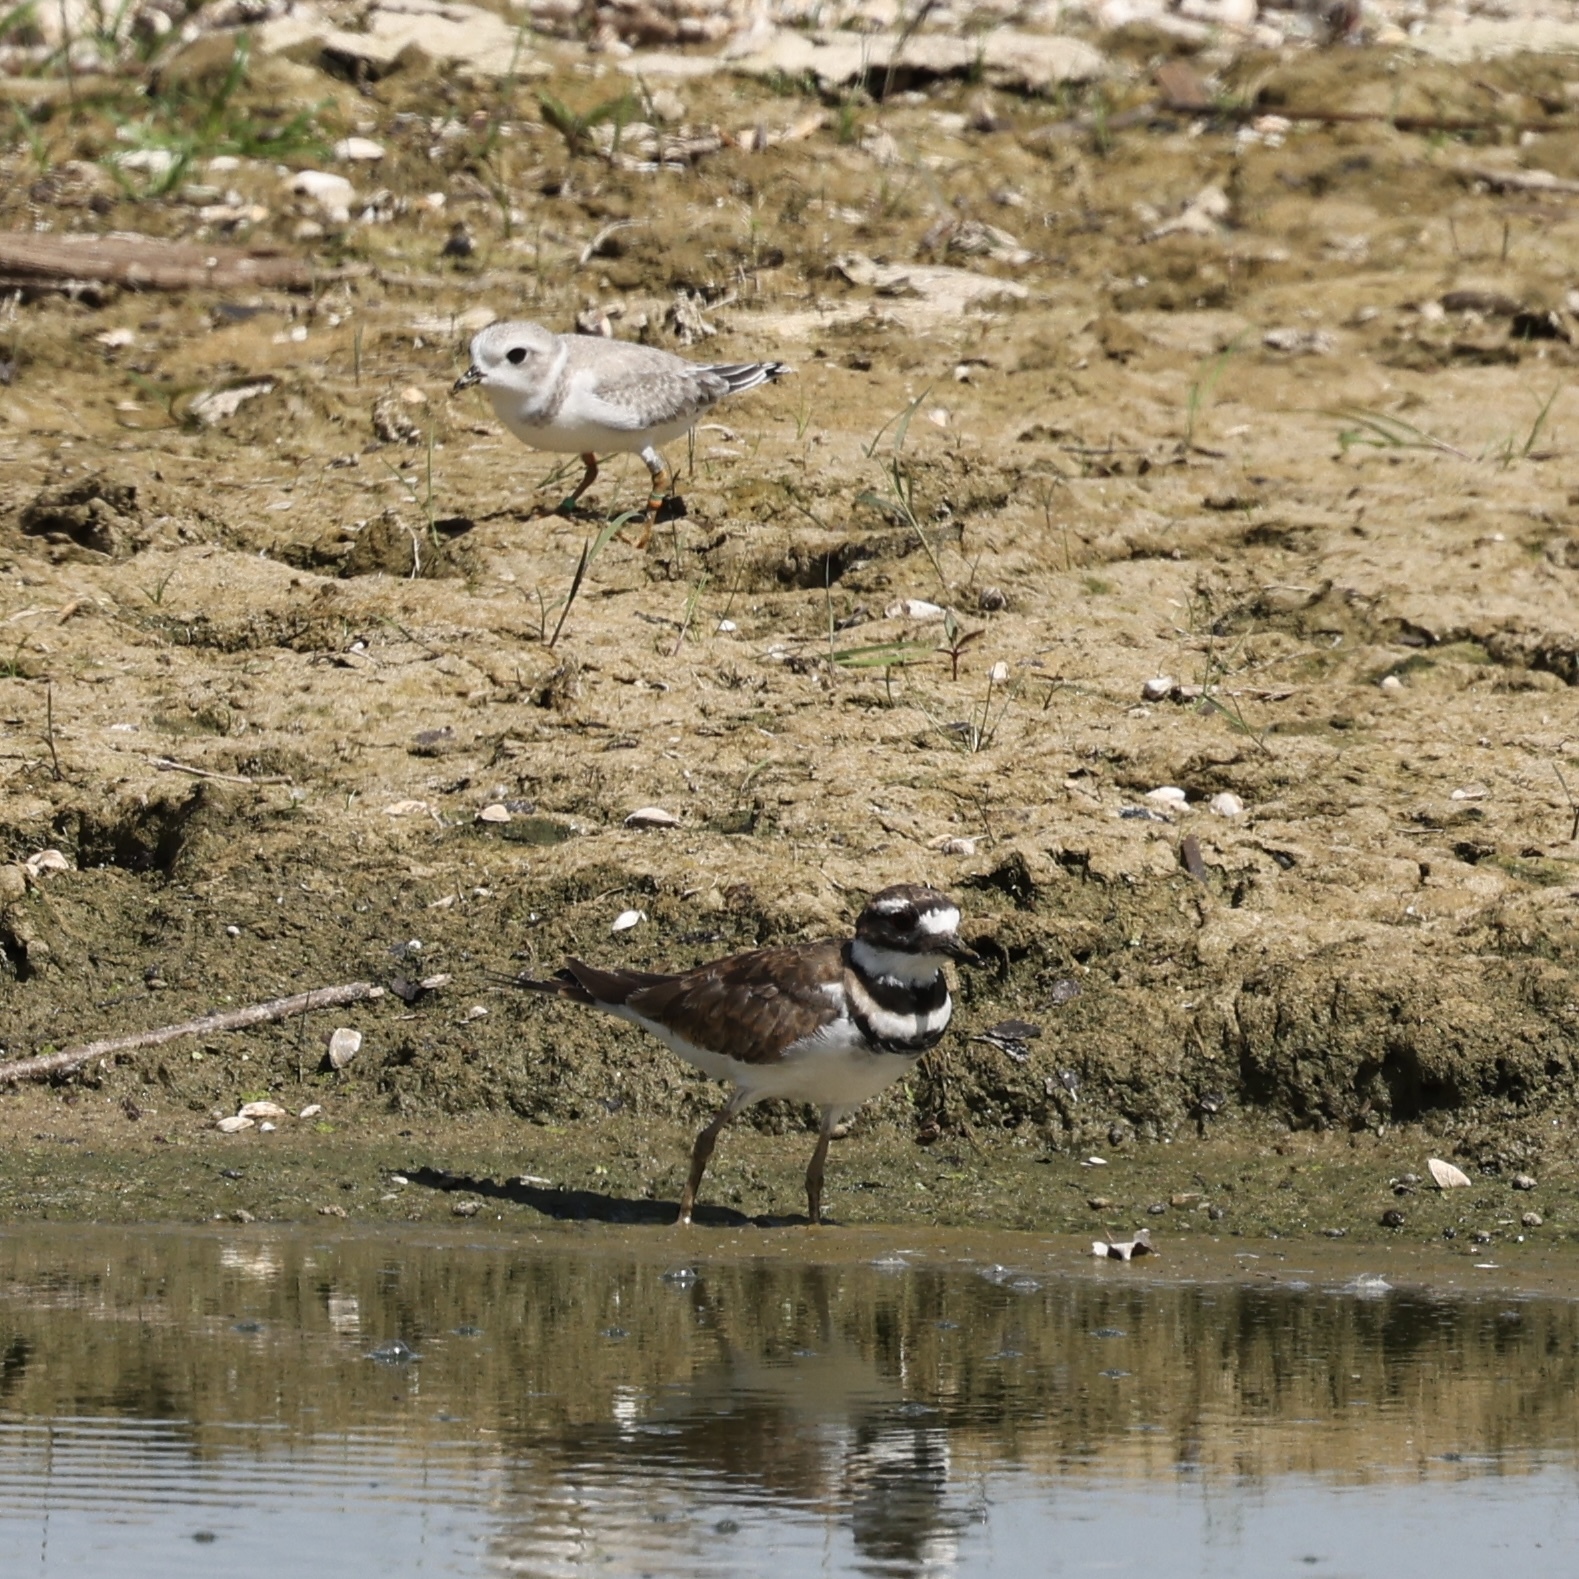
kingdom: Animalia
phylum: Chordata
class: Aves
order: Charadriiformes
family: Charadriidae
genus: Charadrius
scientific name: Charadrius melodus
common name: Piping plover
